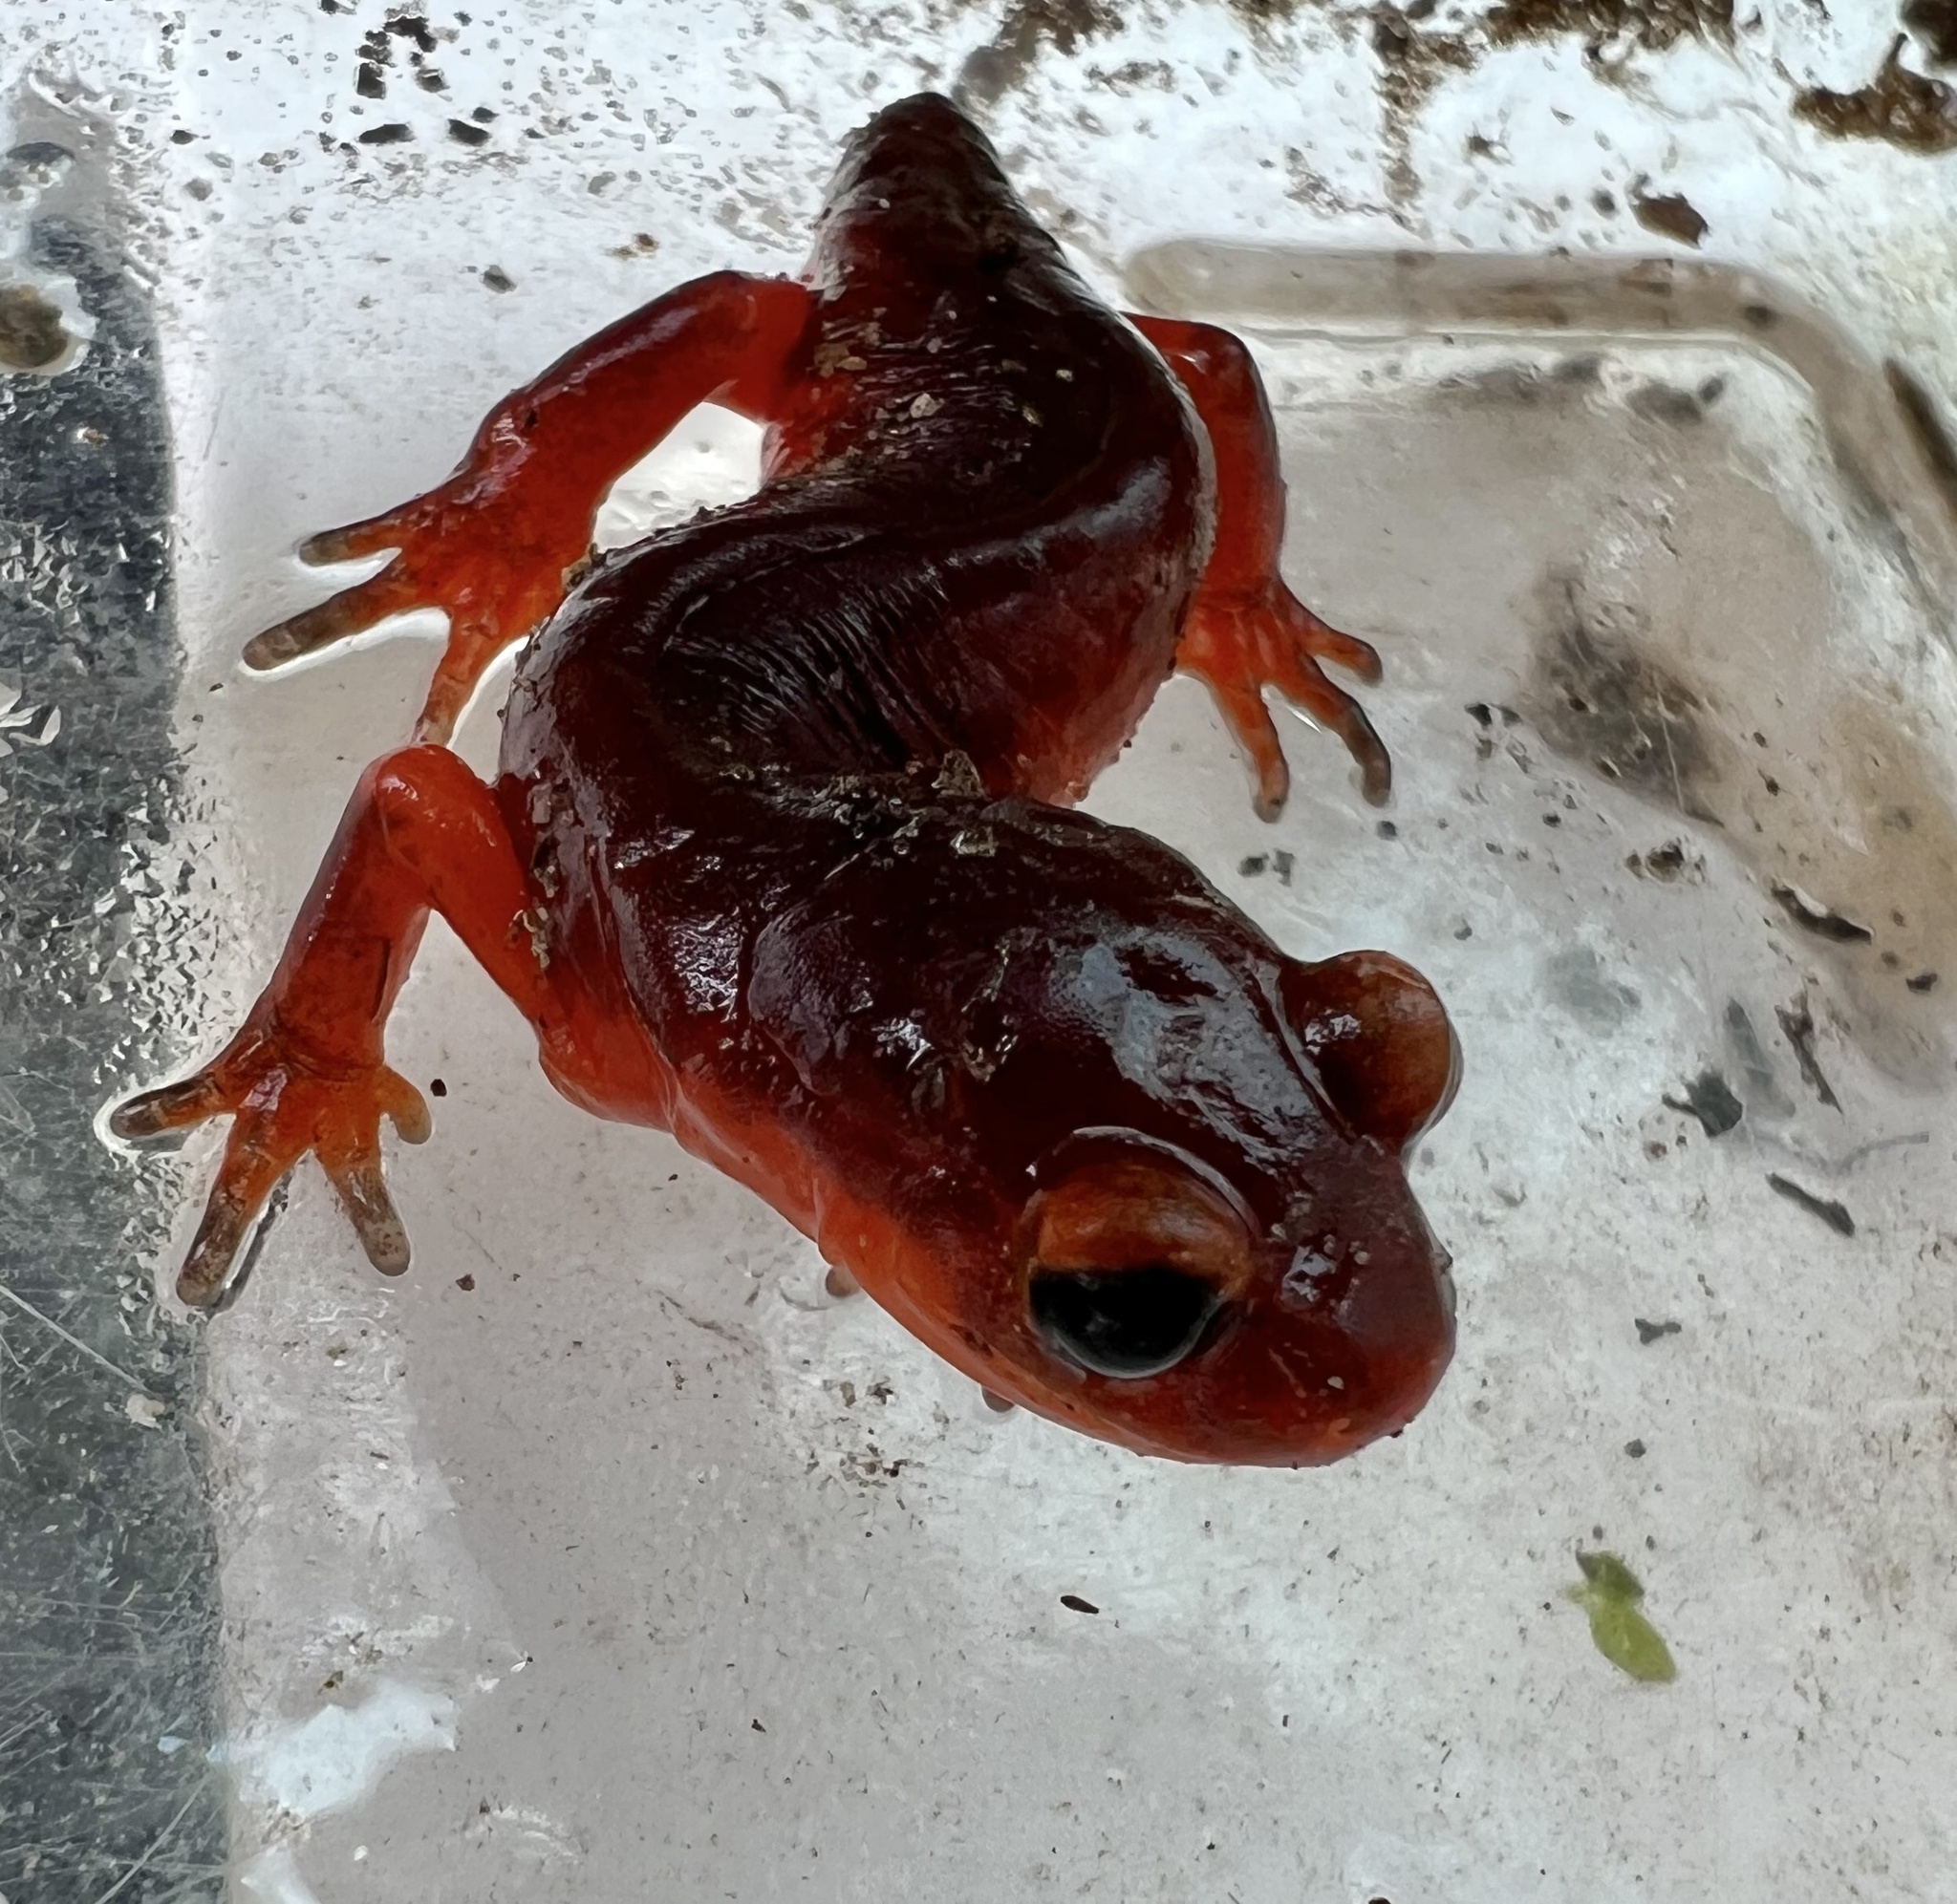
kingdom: Animalia
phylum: Chordata
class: Amphibia
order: Caudata
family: Plethodontidae
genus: Ensatina
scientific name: Ensatina eschscholtzii
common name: Ensatina
